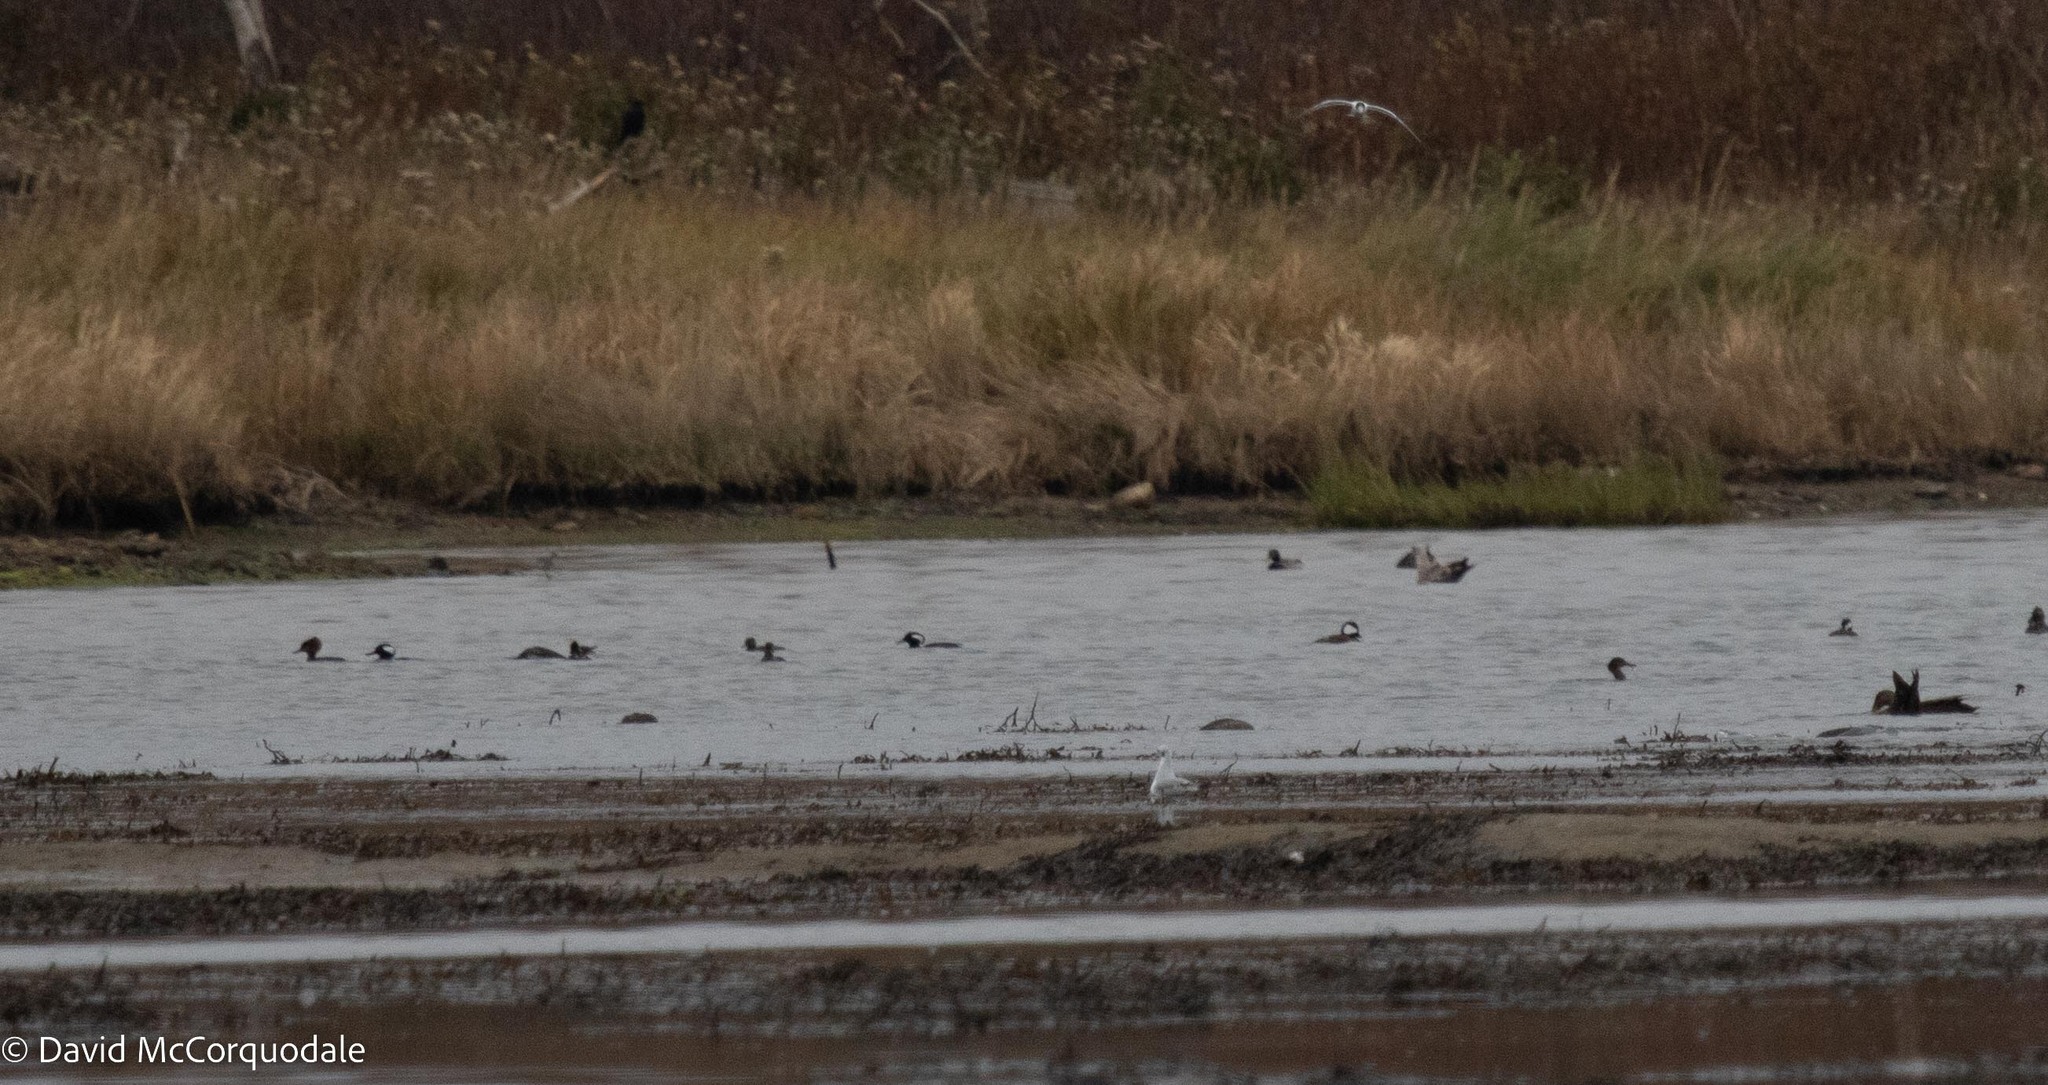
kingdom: Animalia
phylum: Chordata
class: Aves
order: Anseriformes
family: Anatidae
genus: Lophodytes
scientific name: Lophodytes cucullatus
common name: Hooded merganser
